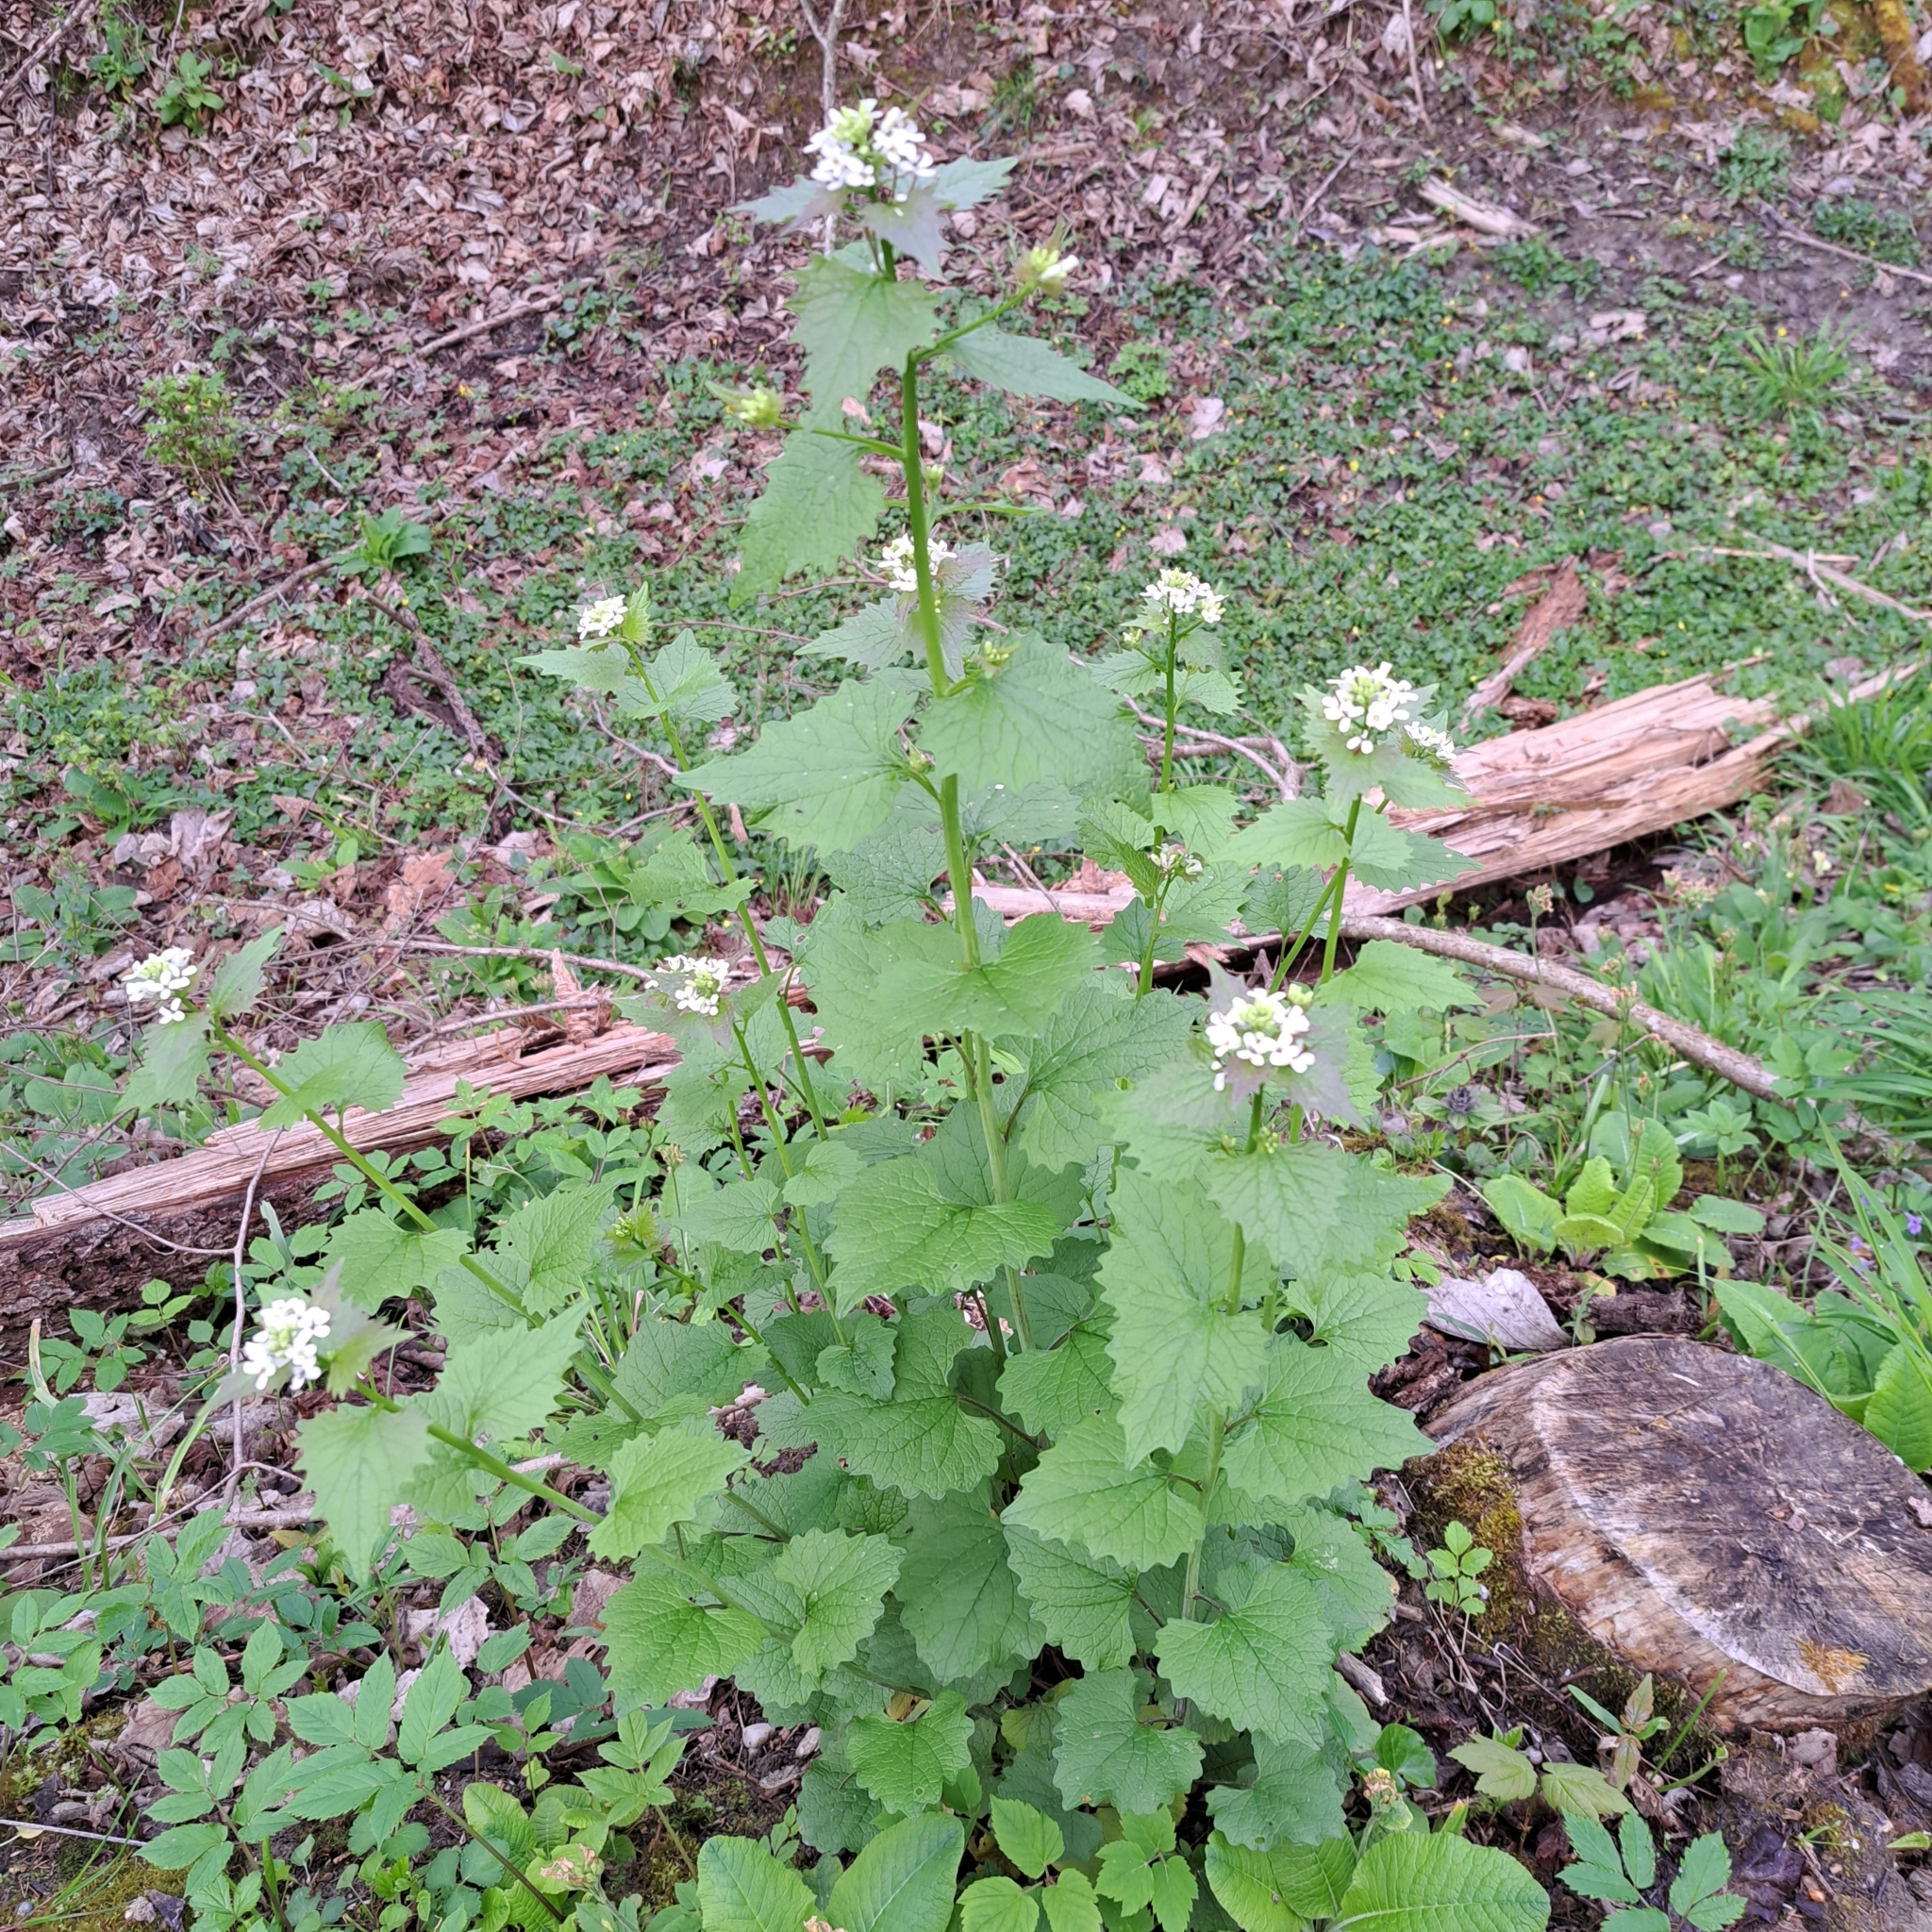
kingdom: Plantae
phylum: Tracheophyta
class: Magnoliopsida
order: Brassicales
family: Brassicaceae
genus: Alliaria
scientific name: Alliaria petiolata
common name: Garlic mustard
